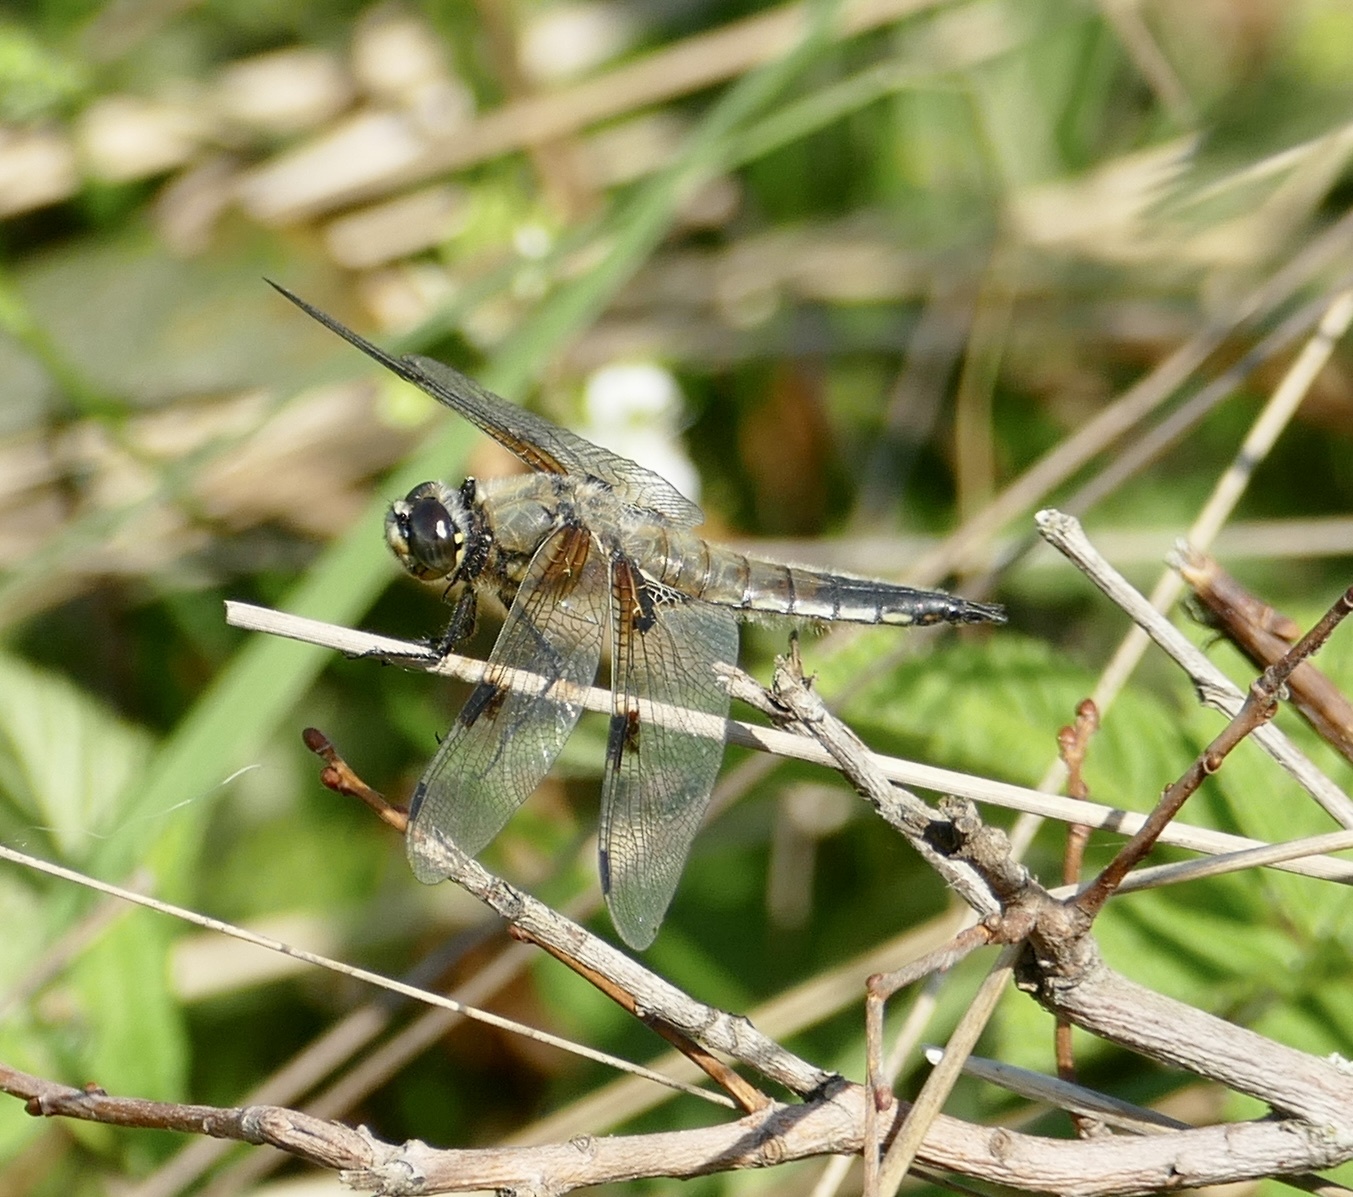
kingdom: Animalia
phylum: Arthropoda
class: Insecta
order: Odonata
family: Libellulidae
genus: Libellula
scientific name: Libellula quadrimaculata
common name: Four-spotted chaser
